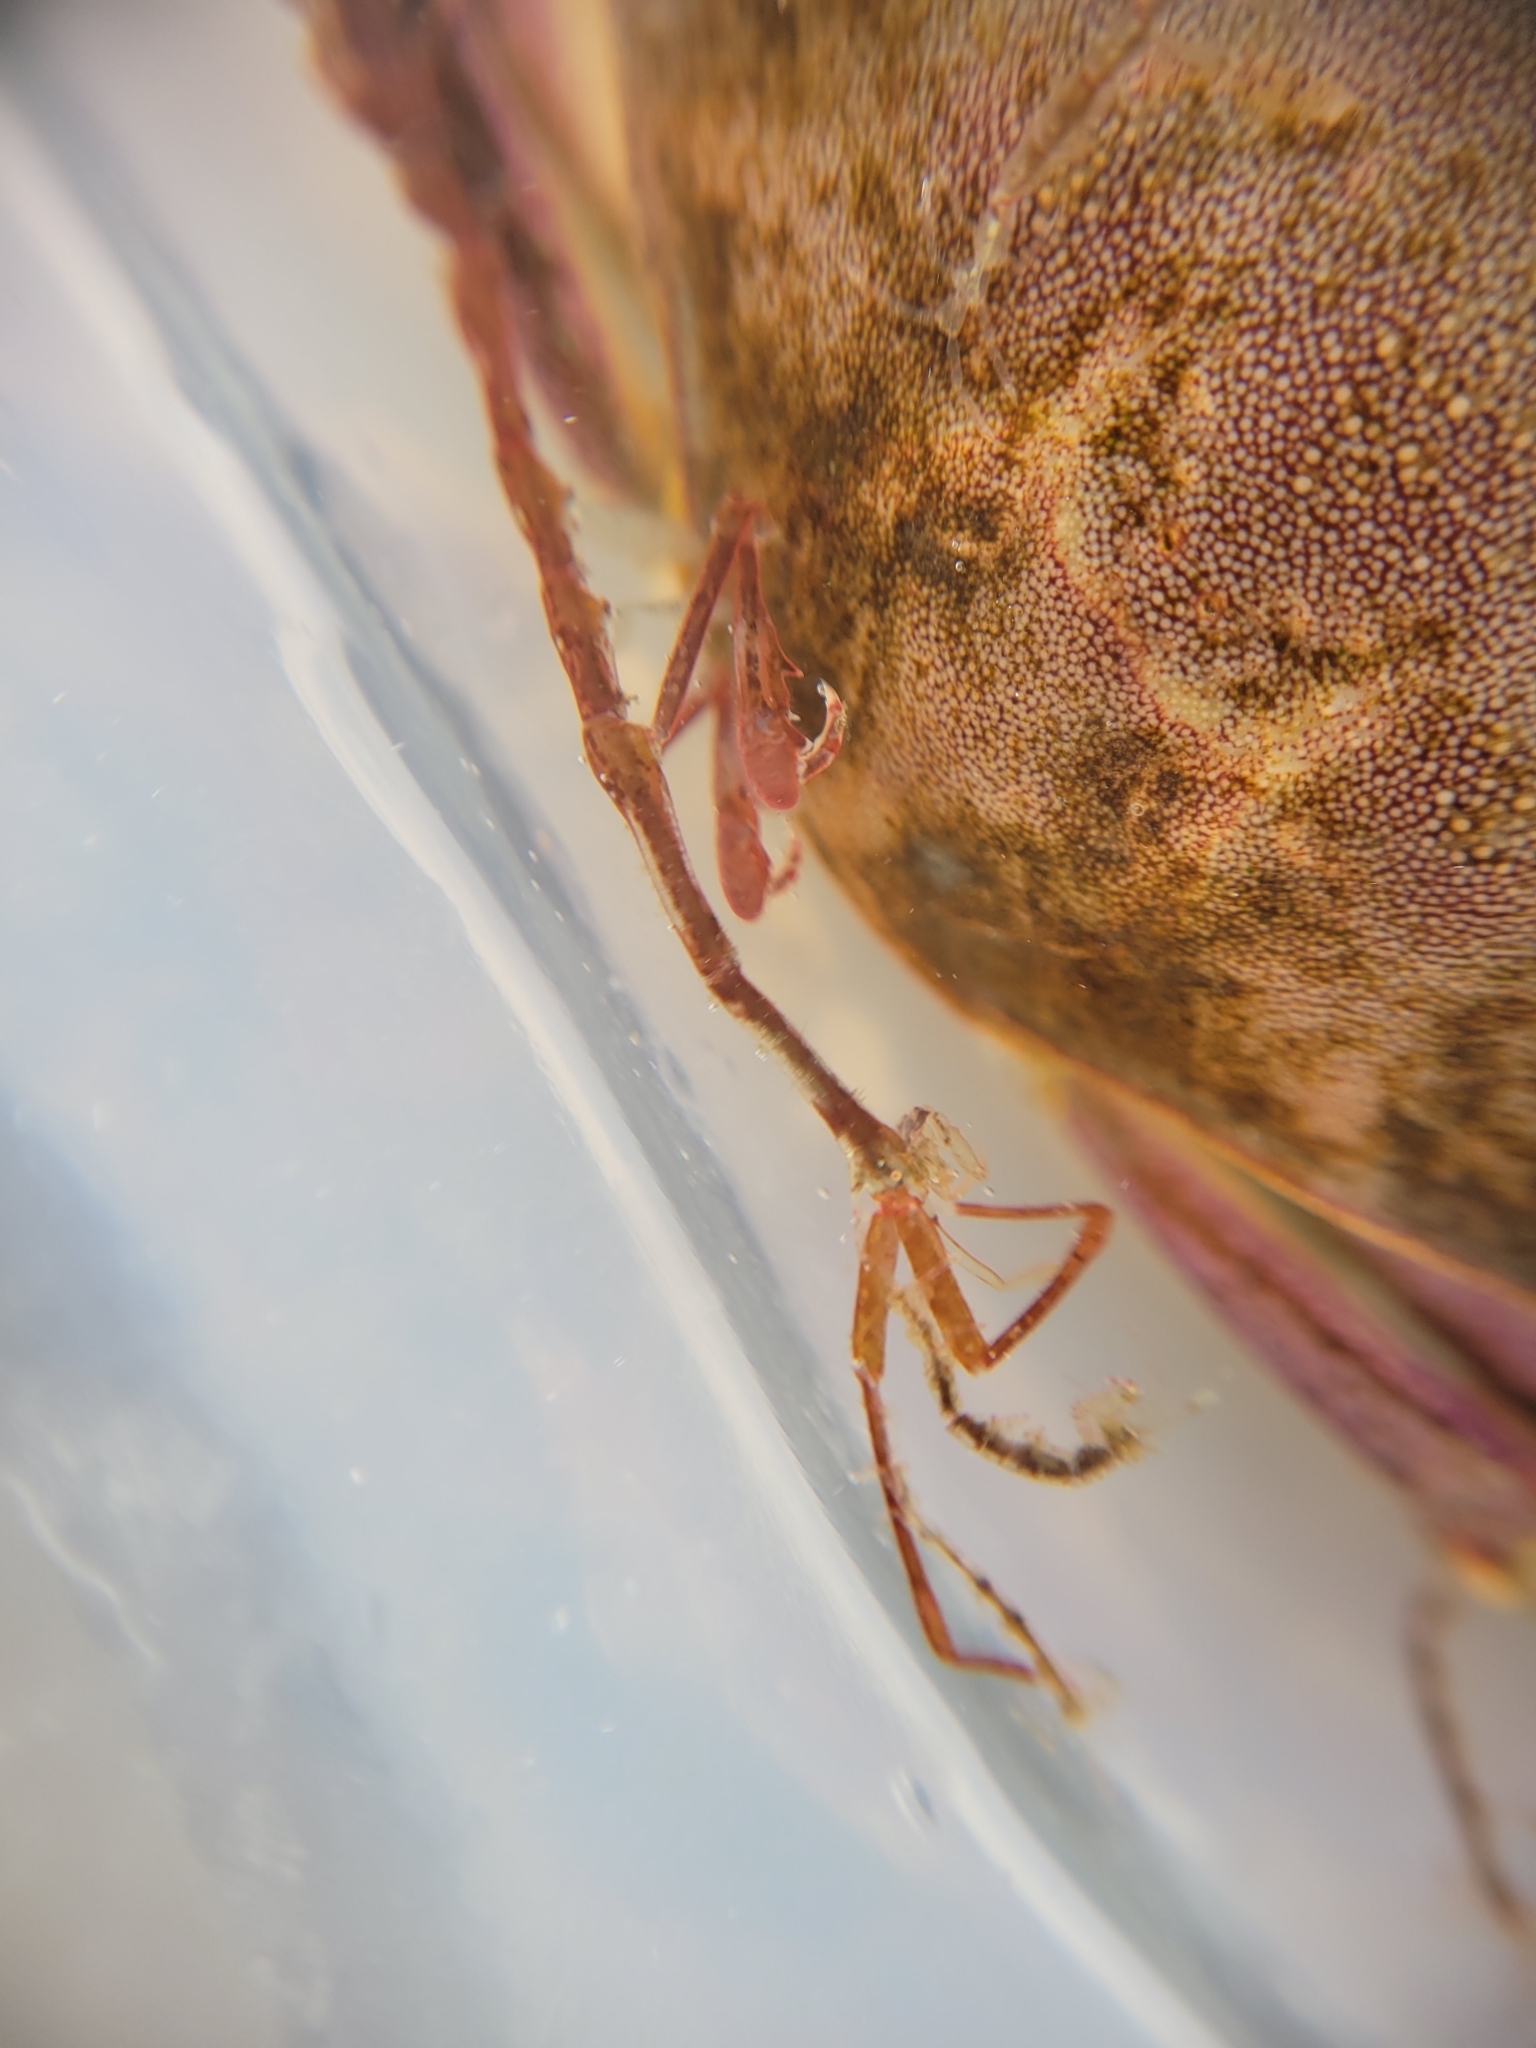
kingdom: Animalia
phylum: Arthropoda
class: Malacostraca
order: Decapoda
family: Cancridae
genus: Metacarcinus
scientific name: Metacarcinus gracilis
